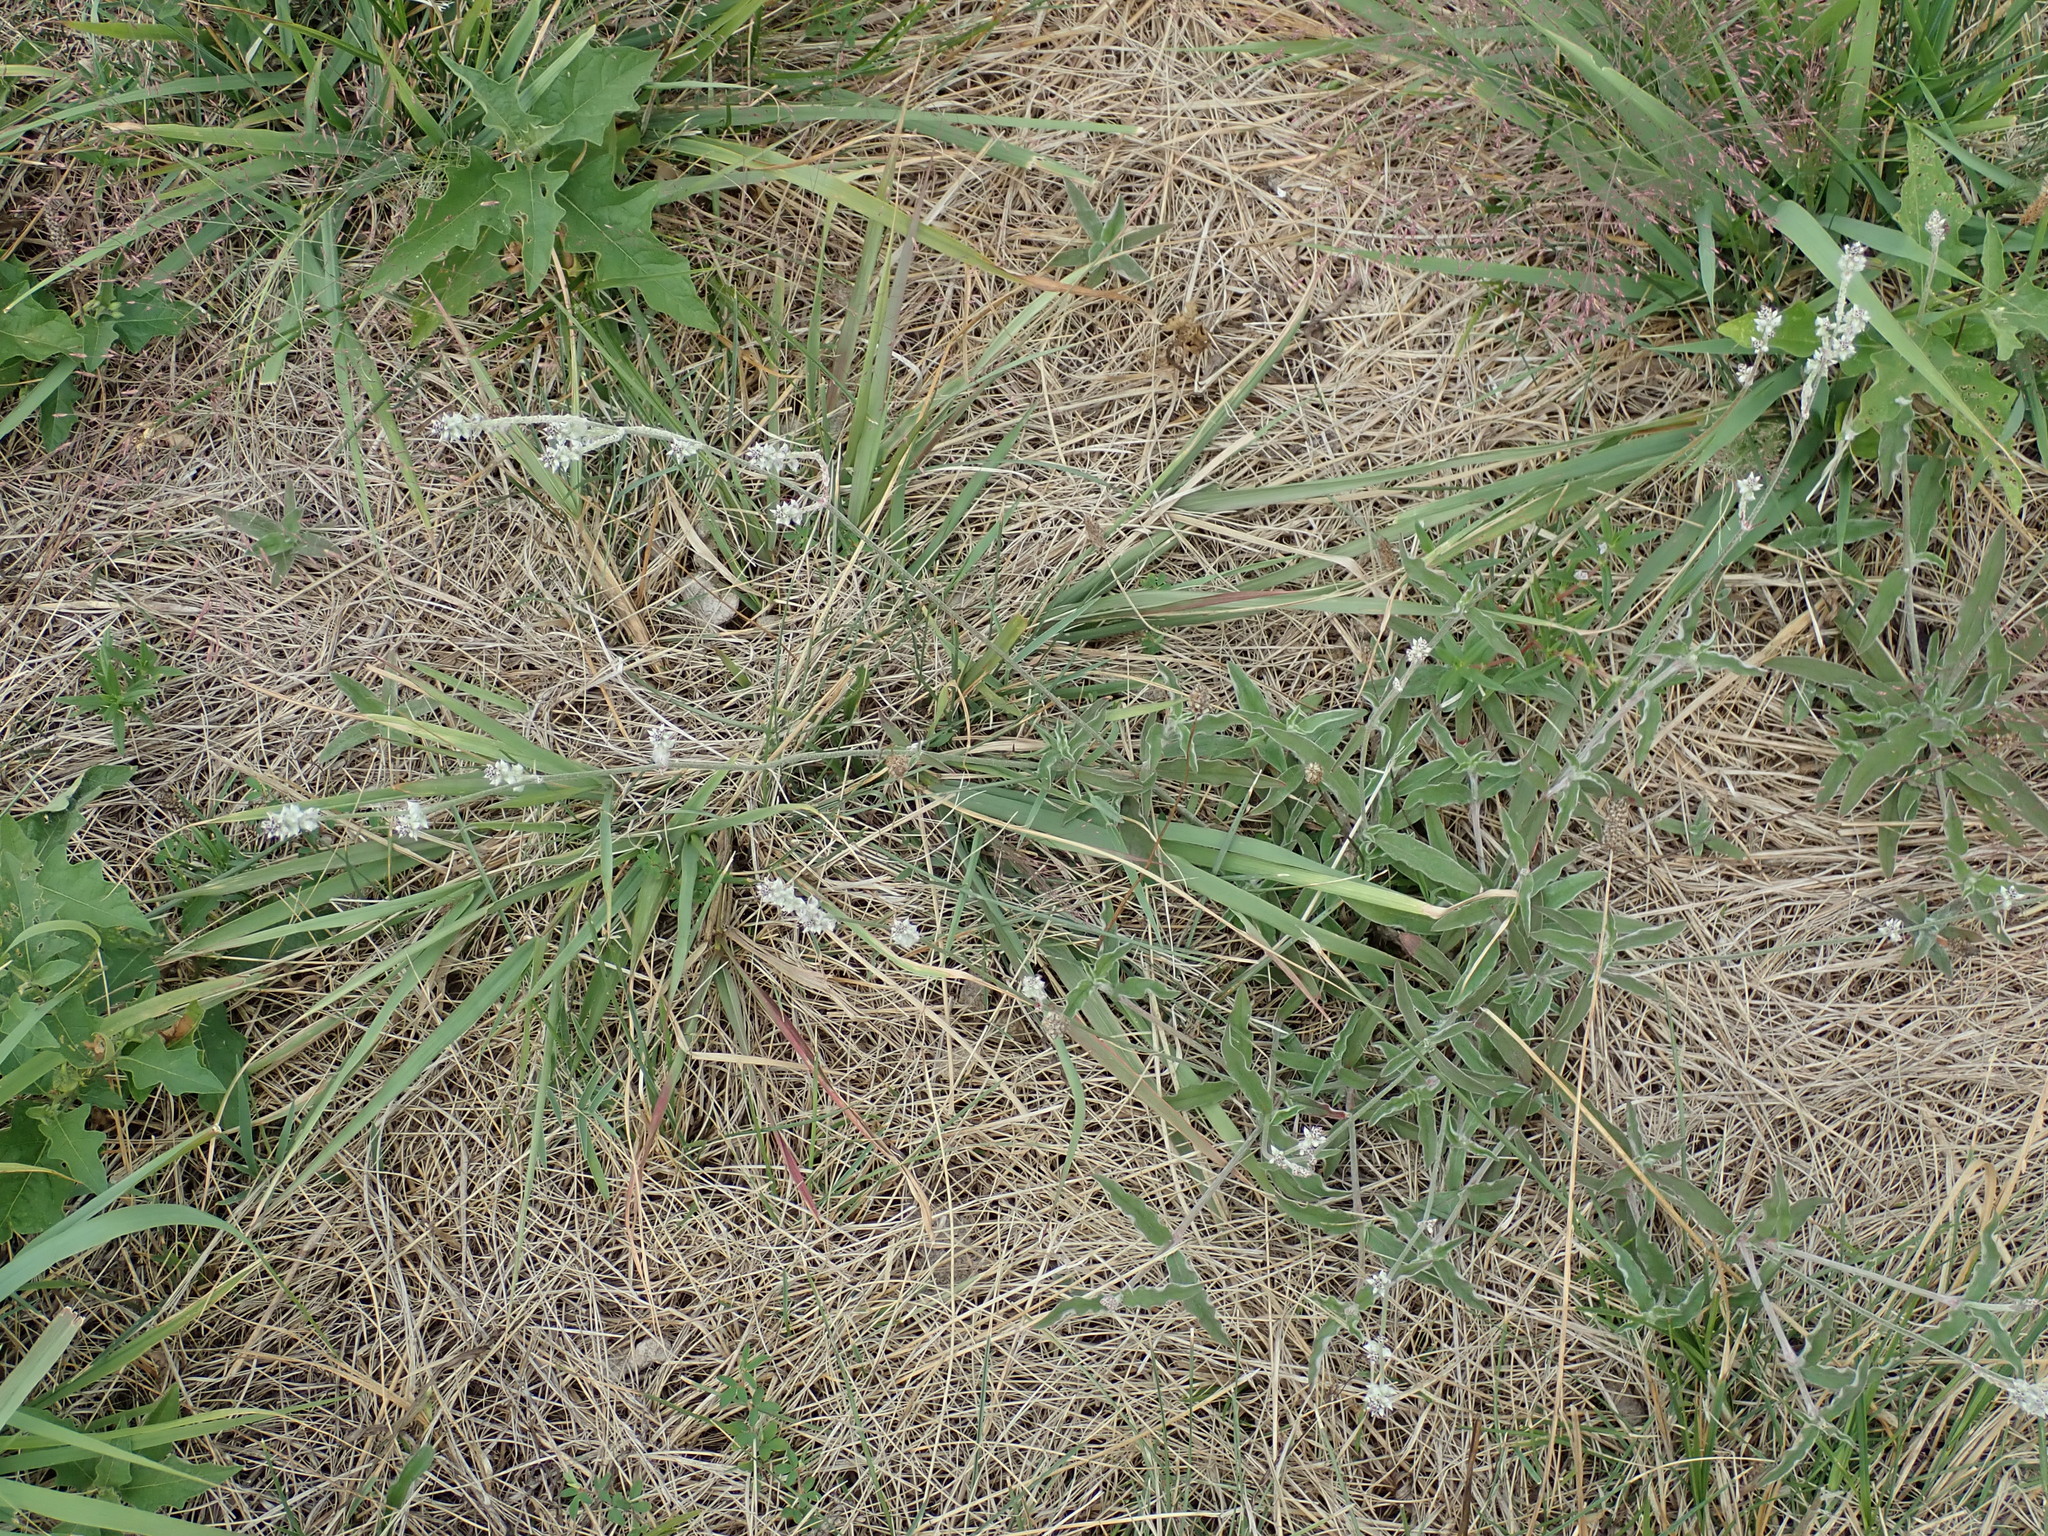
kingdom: Plantae
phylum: Tracheophyta
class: Magnoliopsida
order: Caryophyllales
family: Amaranthaceae
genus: Froelichia
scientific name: Froelichia gracilis
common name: Slender cottonweed
